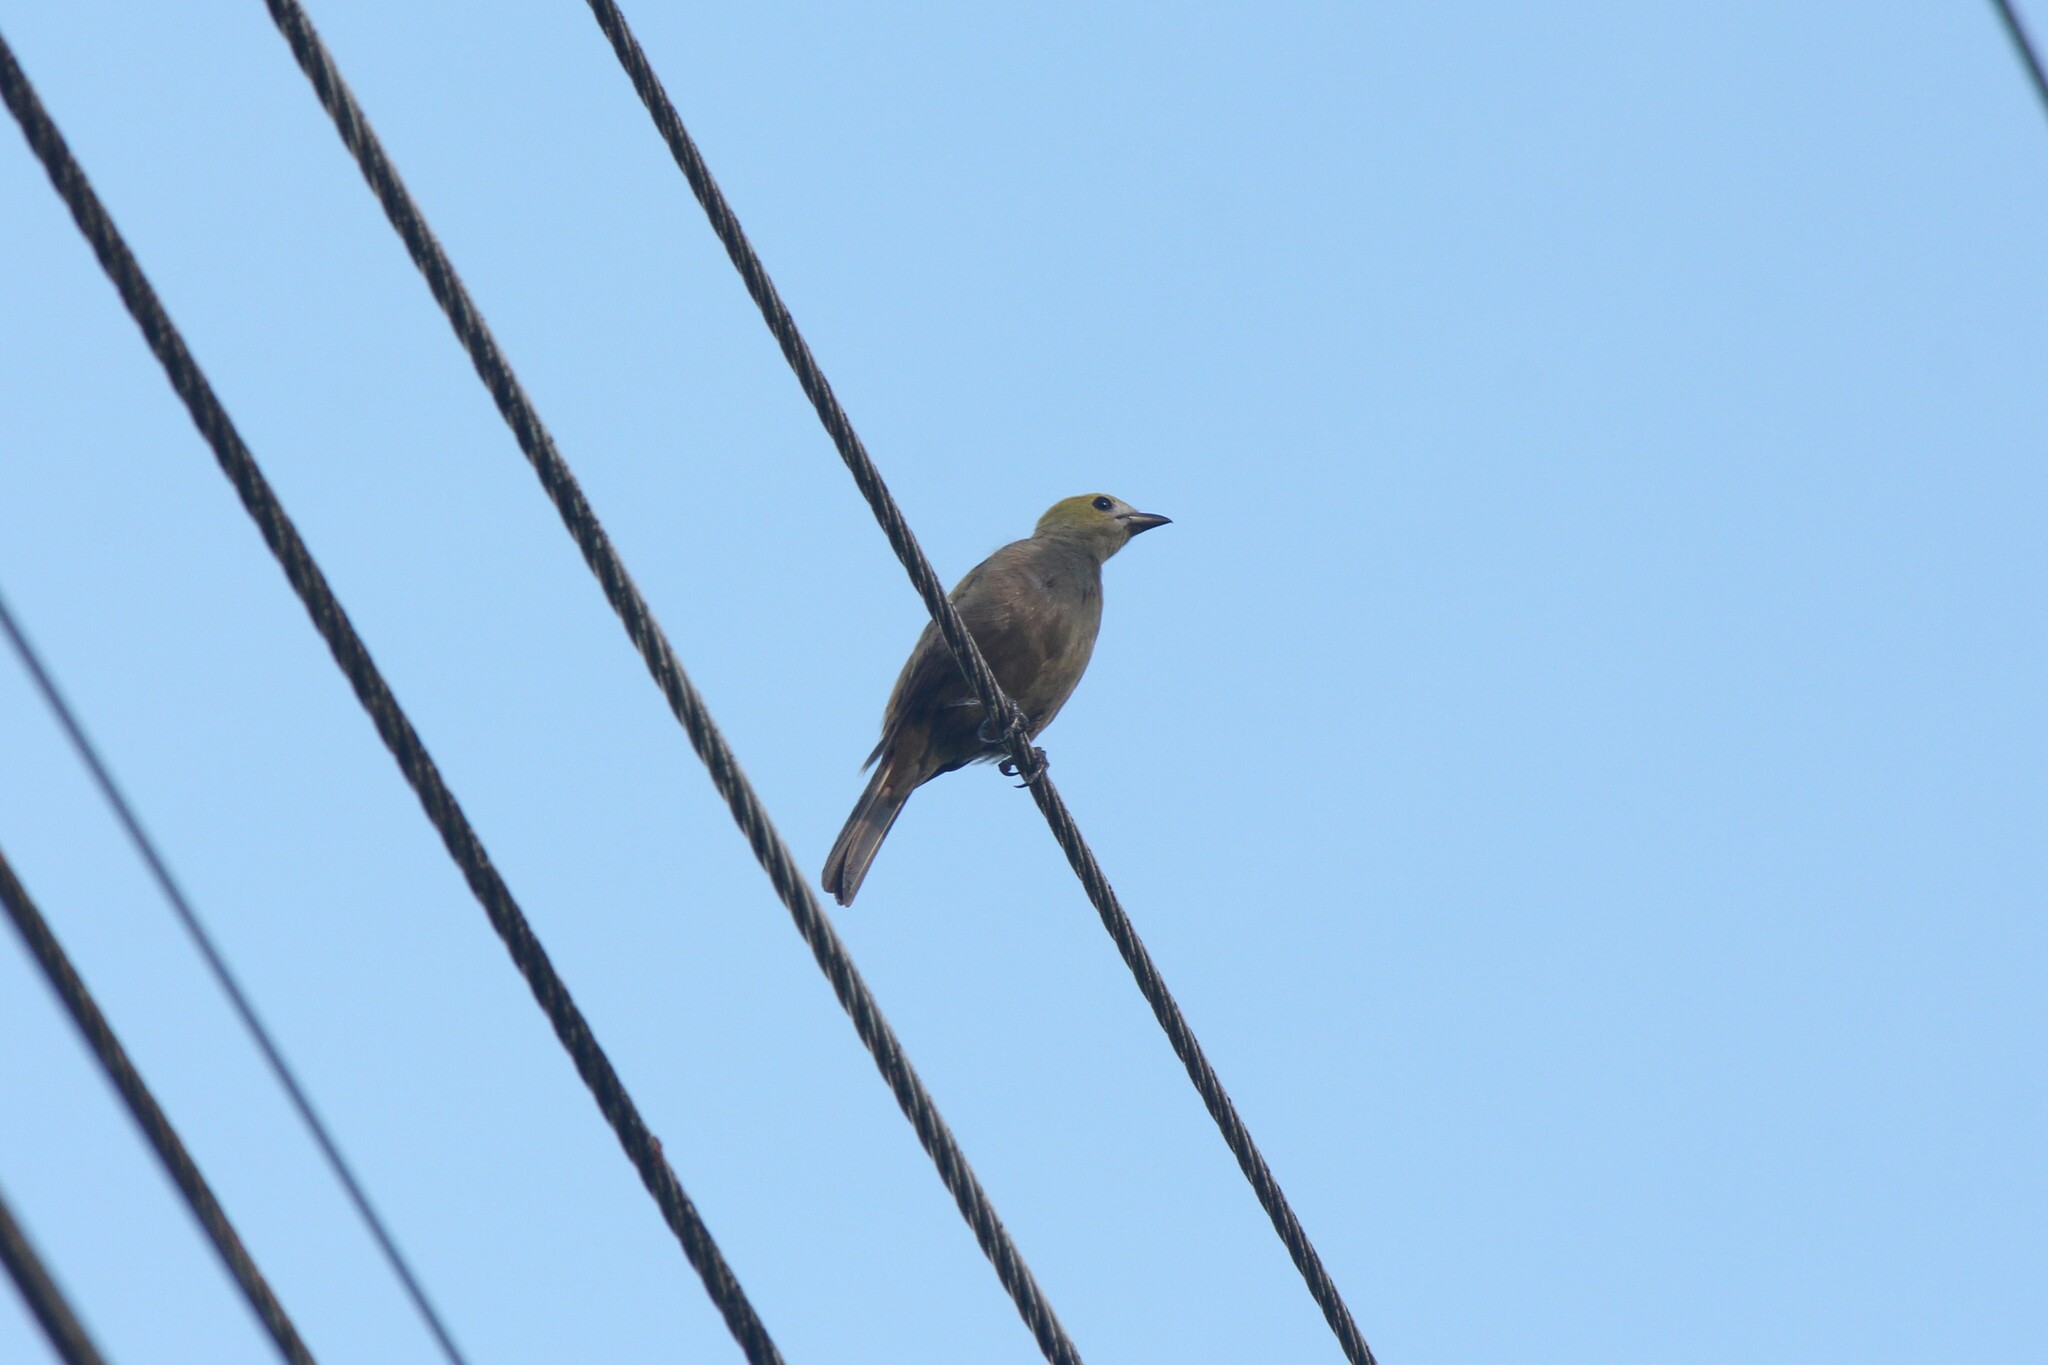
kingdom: Animalia
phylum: Chordata
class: Aves
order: Passeriformes
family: Thraupidae
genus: Thraupis
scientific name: Thraupis palmarum
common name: Palm tanager
